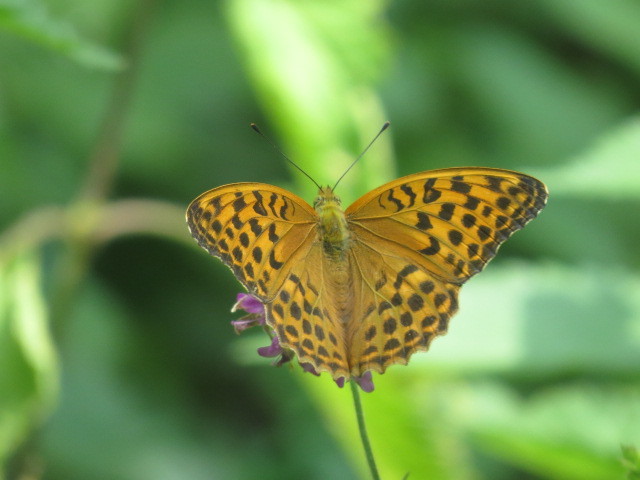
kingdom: Animalia
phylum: Arthropoda
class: Insecta
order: Lepidoptera
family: Nymphalidae
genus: Argynnis
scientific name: Argynnis paphia
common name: Silver-washed fritillary
